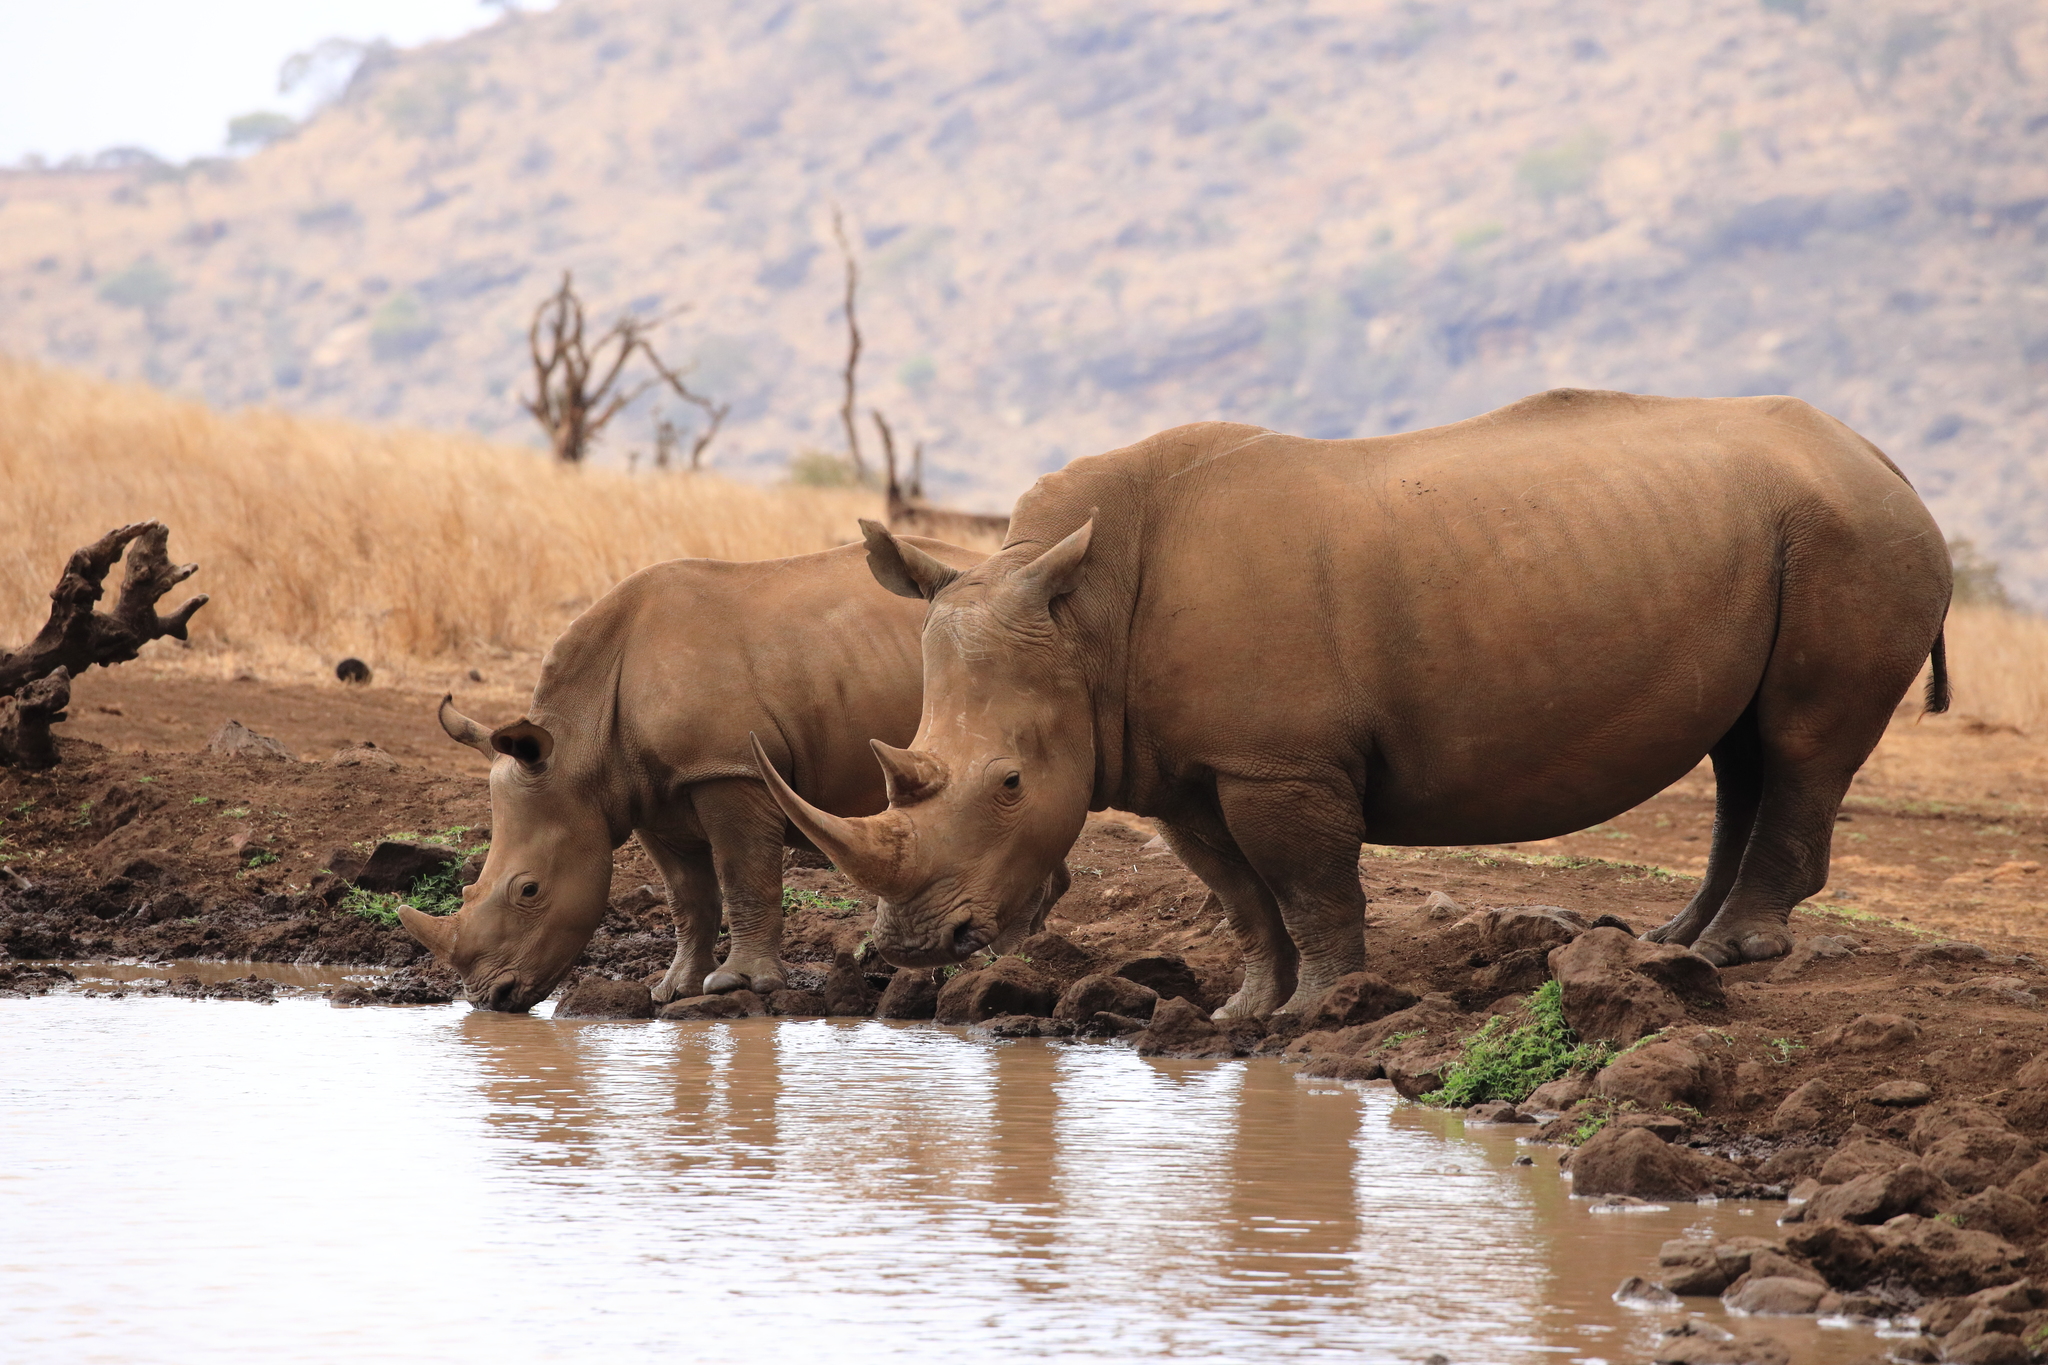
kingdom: Animalia
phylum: Chordata
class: Mammalia
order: Perissodactyla
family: Rhinocerotidae
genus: Ceratotherium
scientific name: Ceratotherium simum
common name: White rhinoceros
